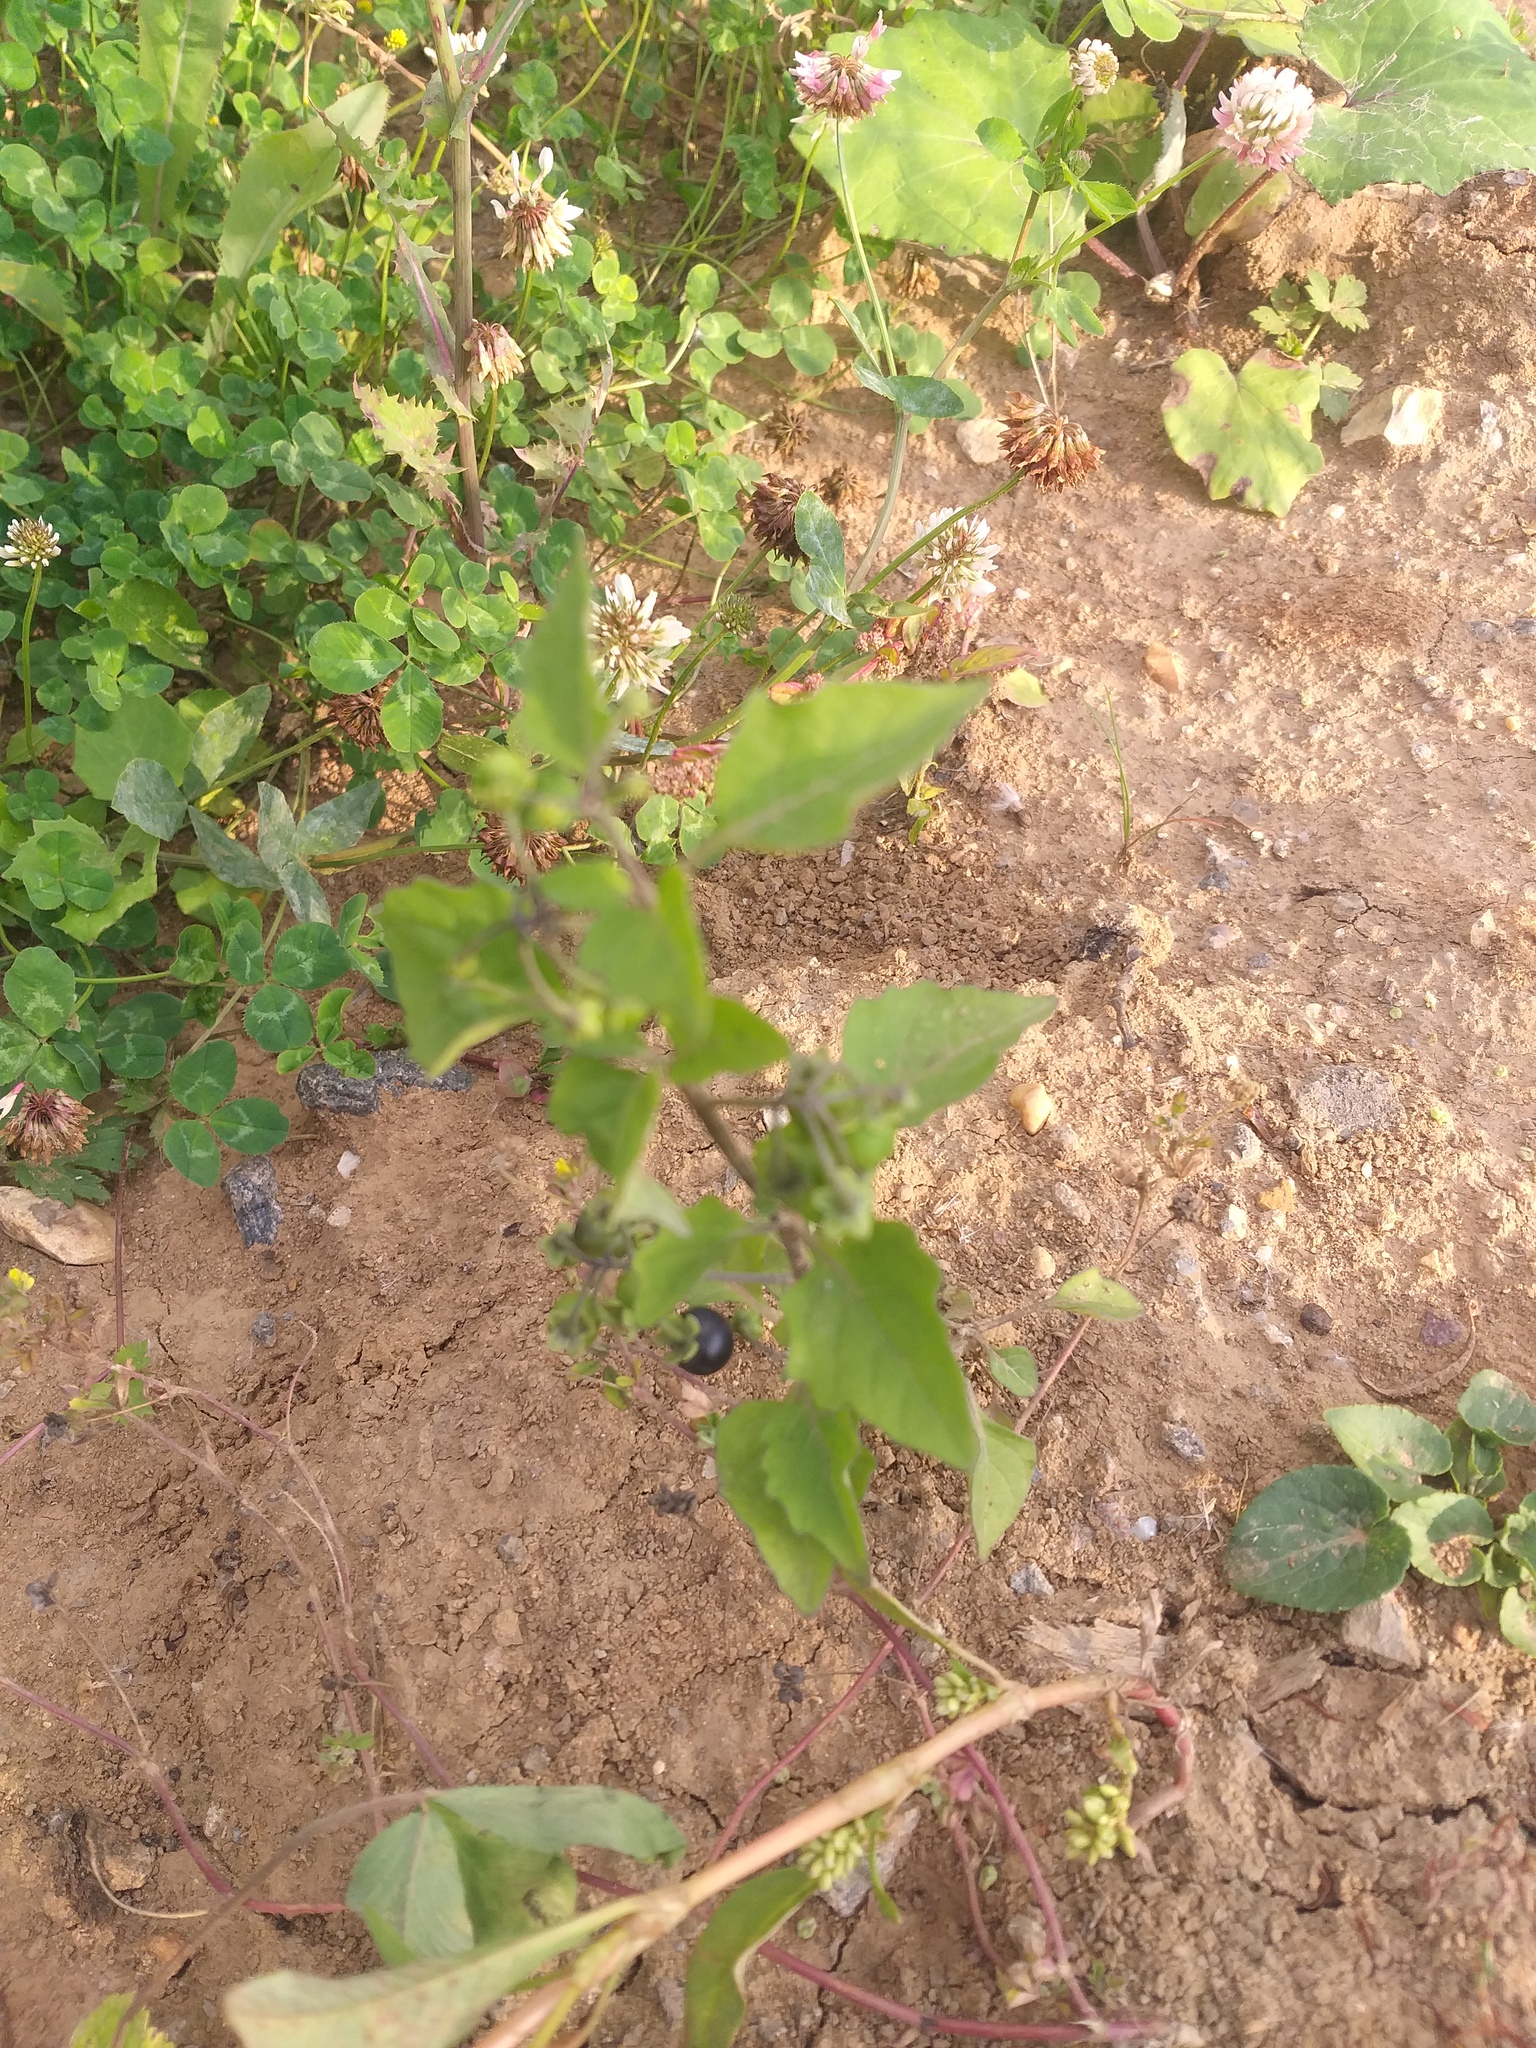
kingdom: Plantae
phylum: Tracheophyta
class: Magnoliopsida
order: Solanales
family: Solanaceae
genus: Solanum
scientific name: Solanum nigrum
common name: Black nightshade
